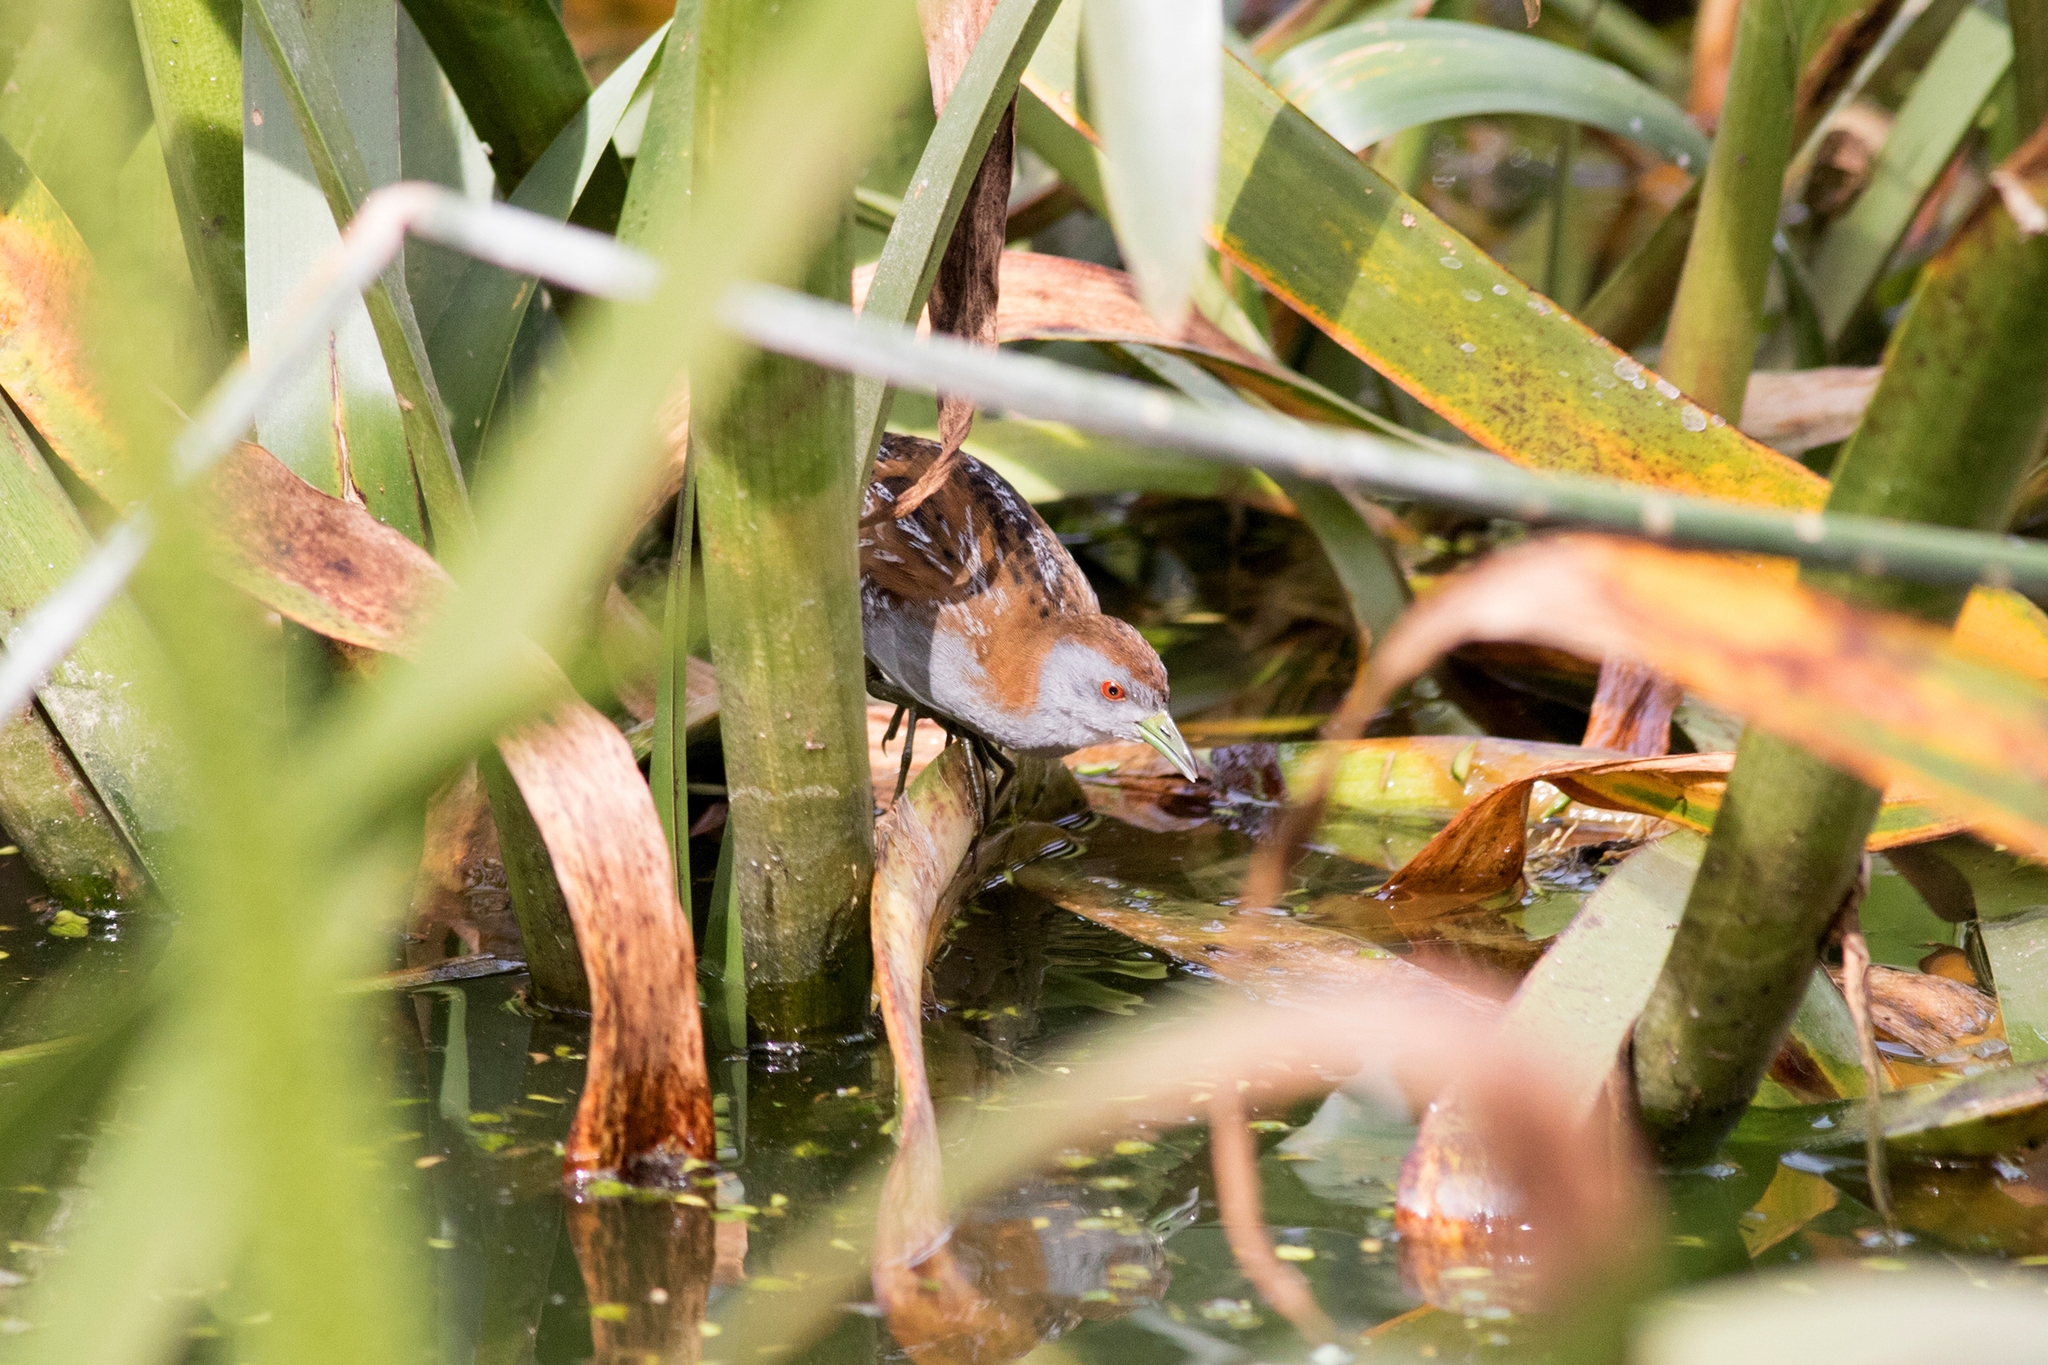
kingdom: Animalia
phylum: Chordata
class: Aves
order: Gruiformes
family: Rallidae
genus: Porzana
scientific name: Porzana pusilla
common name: Baillon's crake
